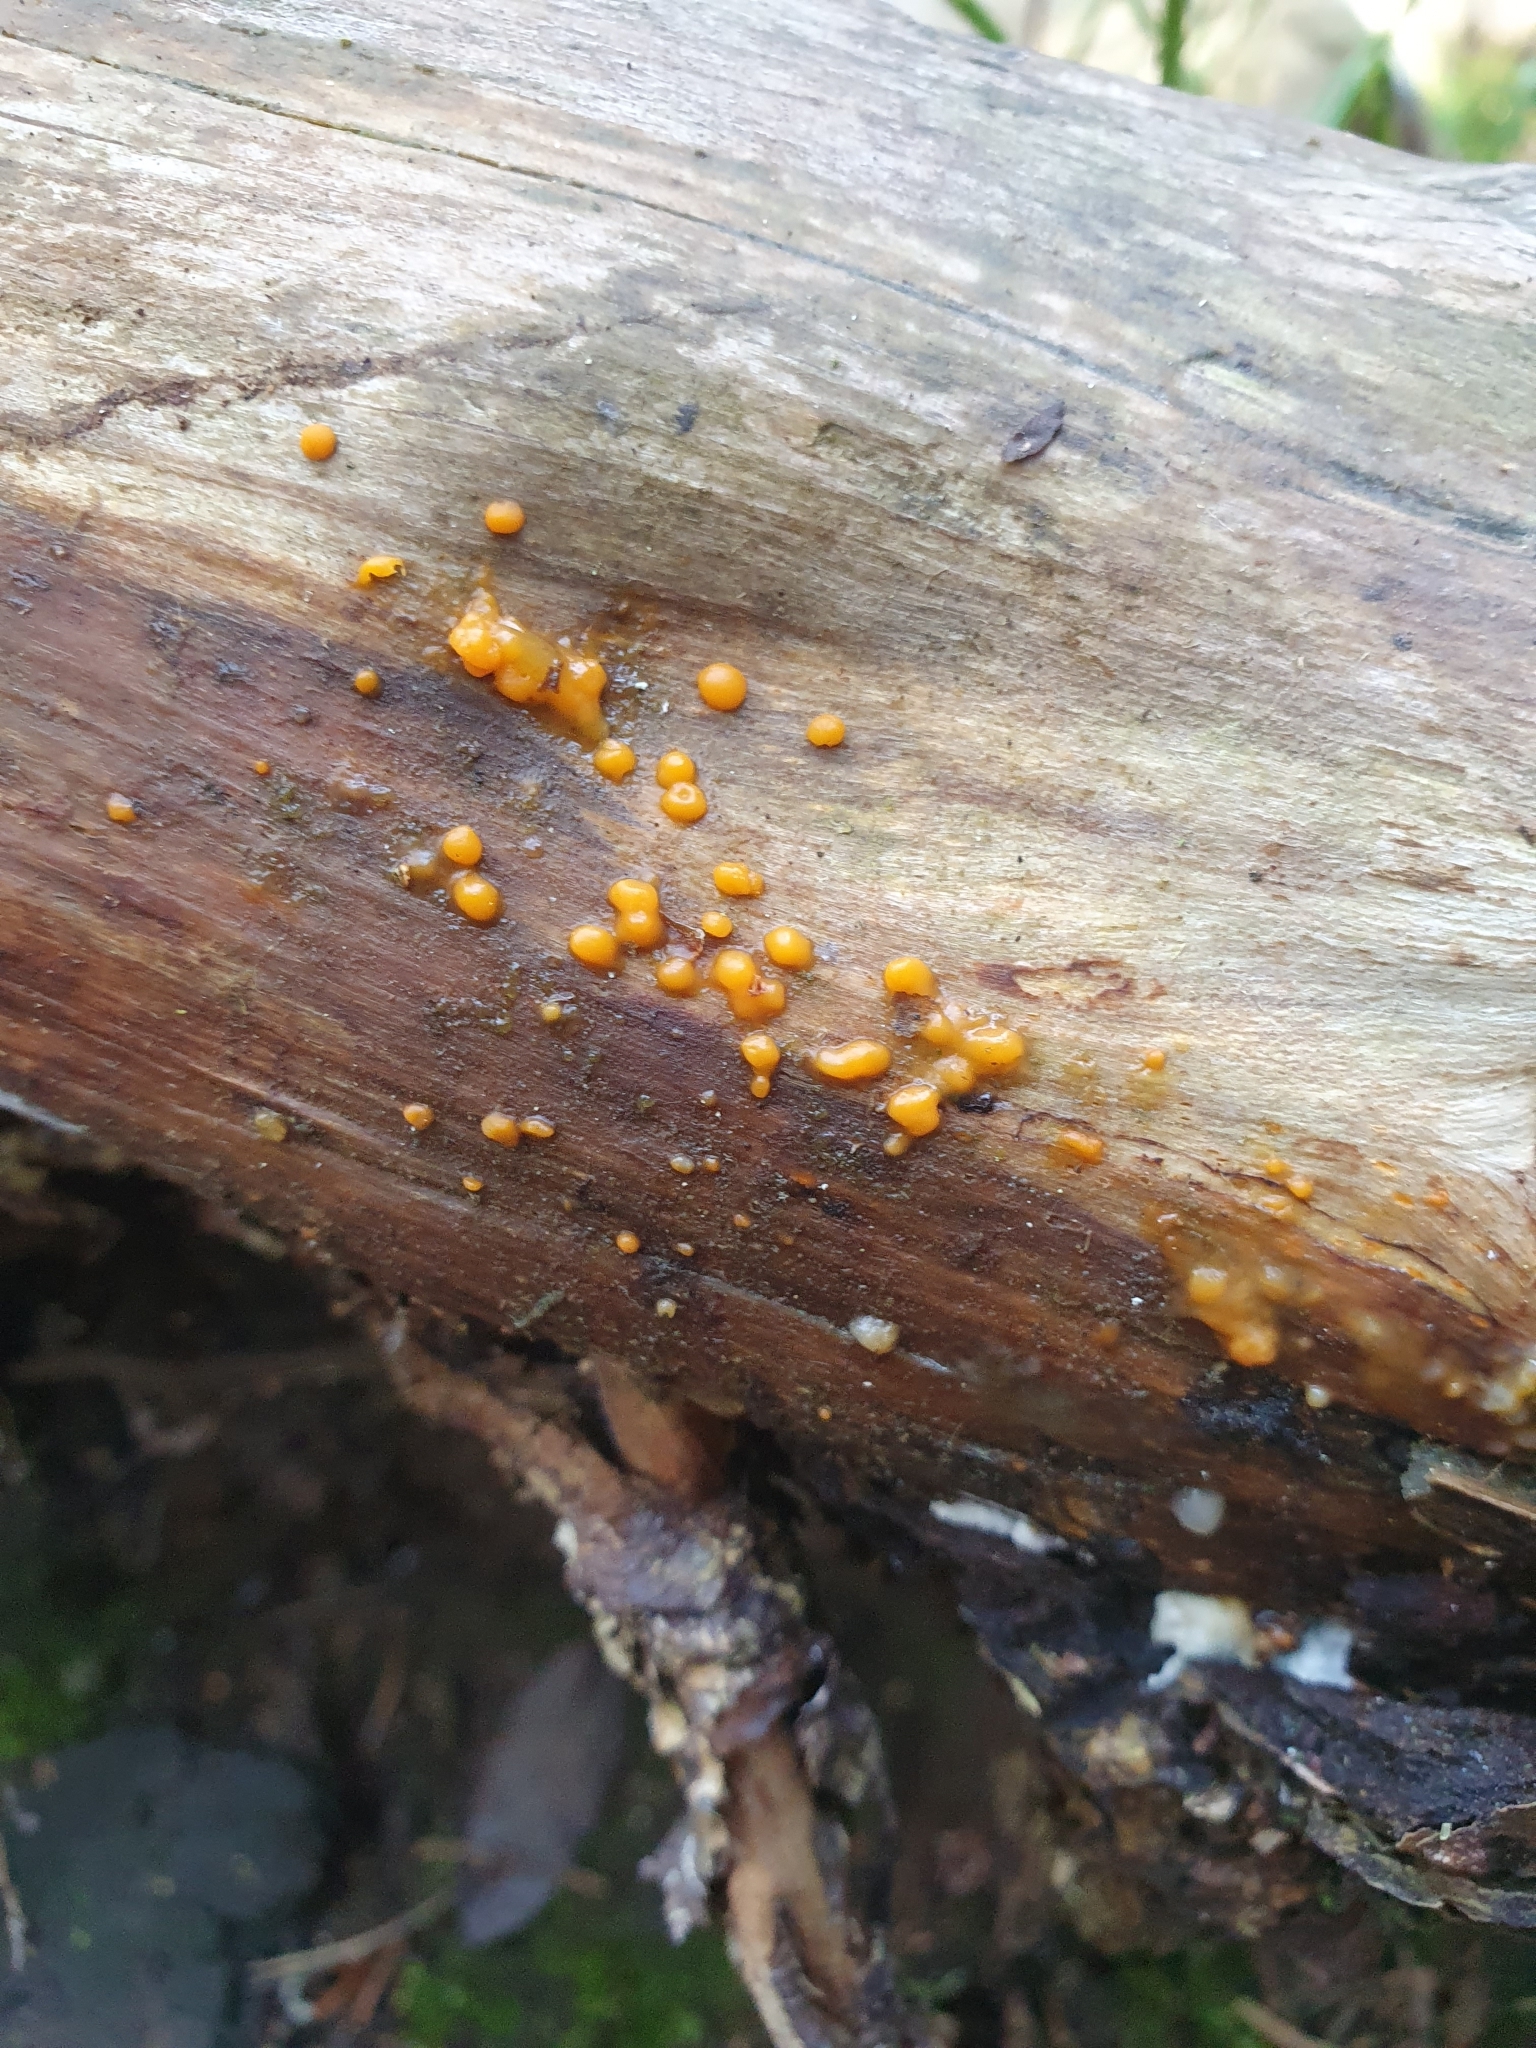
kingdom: Fungi
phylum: Basidiomycota
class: Dacrymycetes
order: Dacrymycetales
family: Dacrymycetaceae
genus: Dacrymyces
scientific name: Dacrymyces stillatus
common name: Common jelly spot
